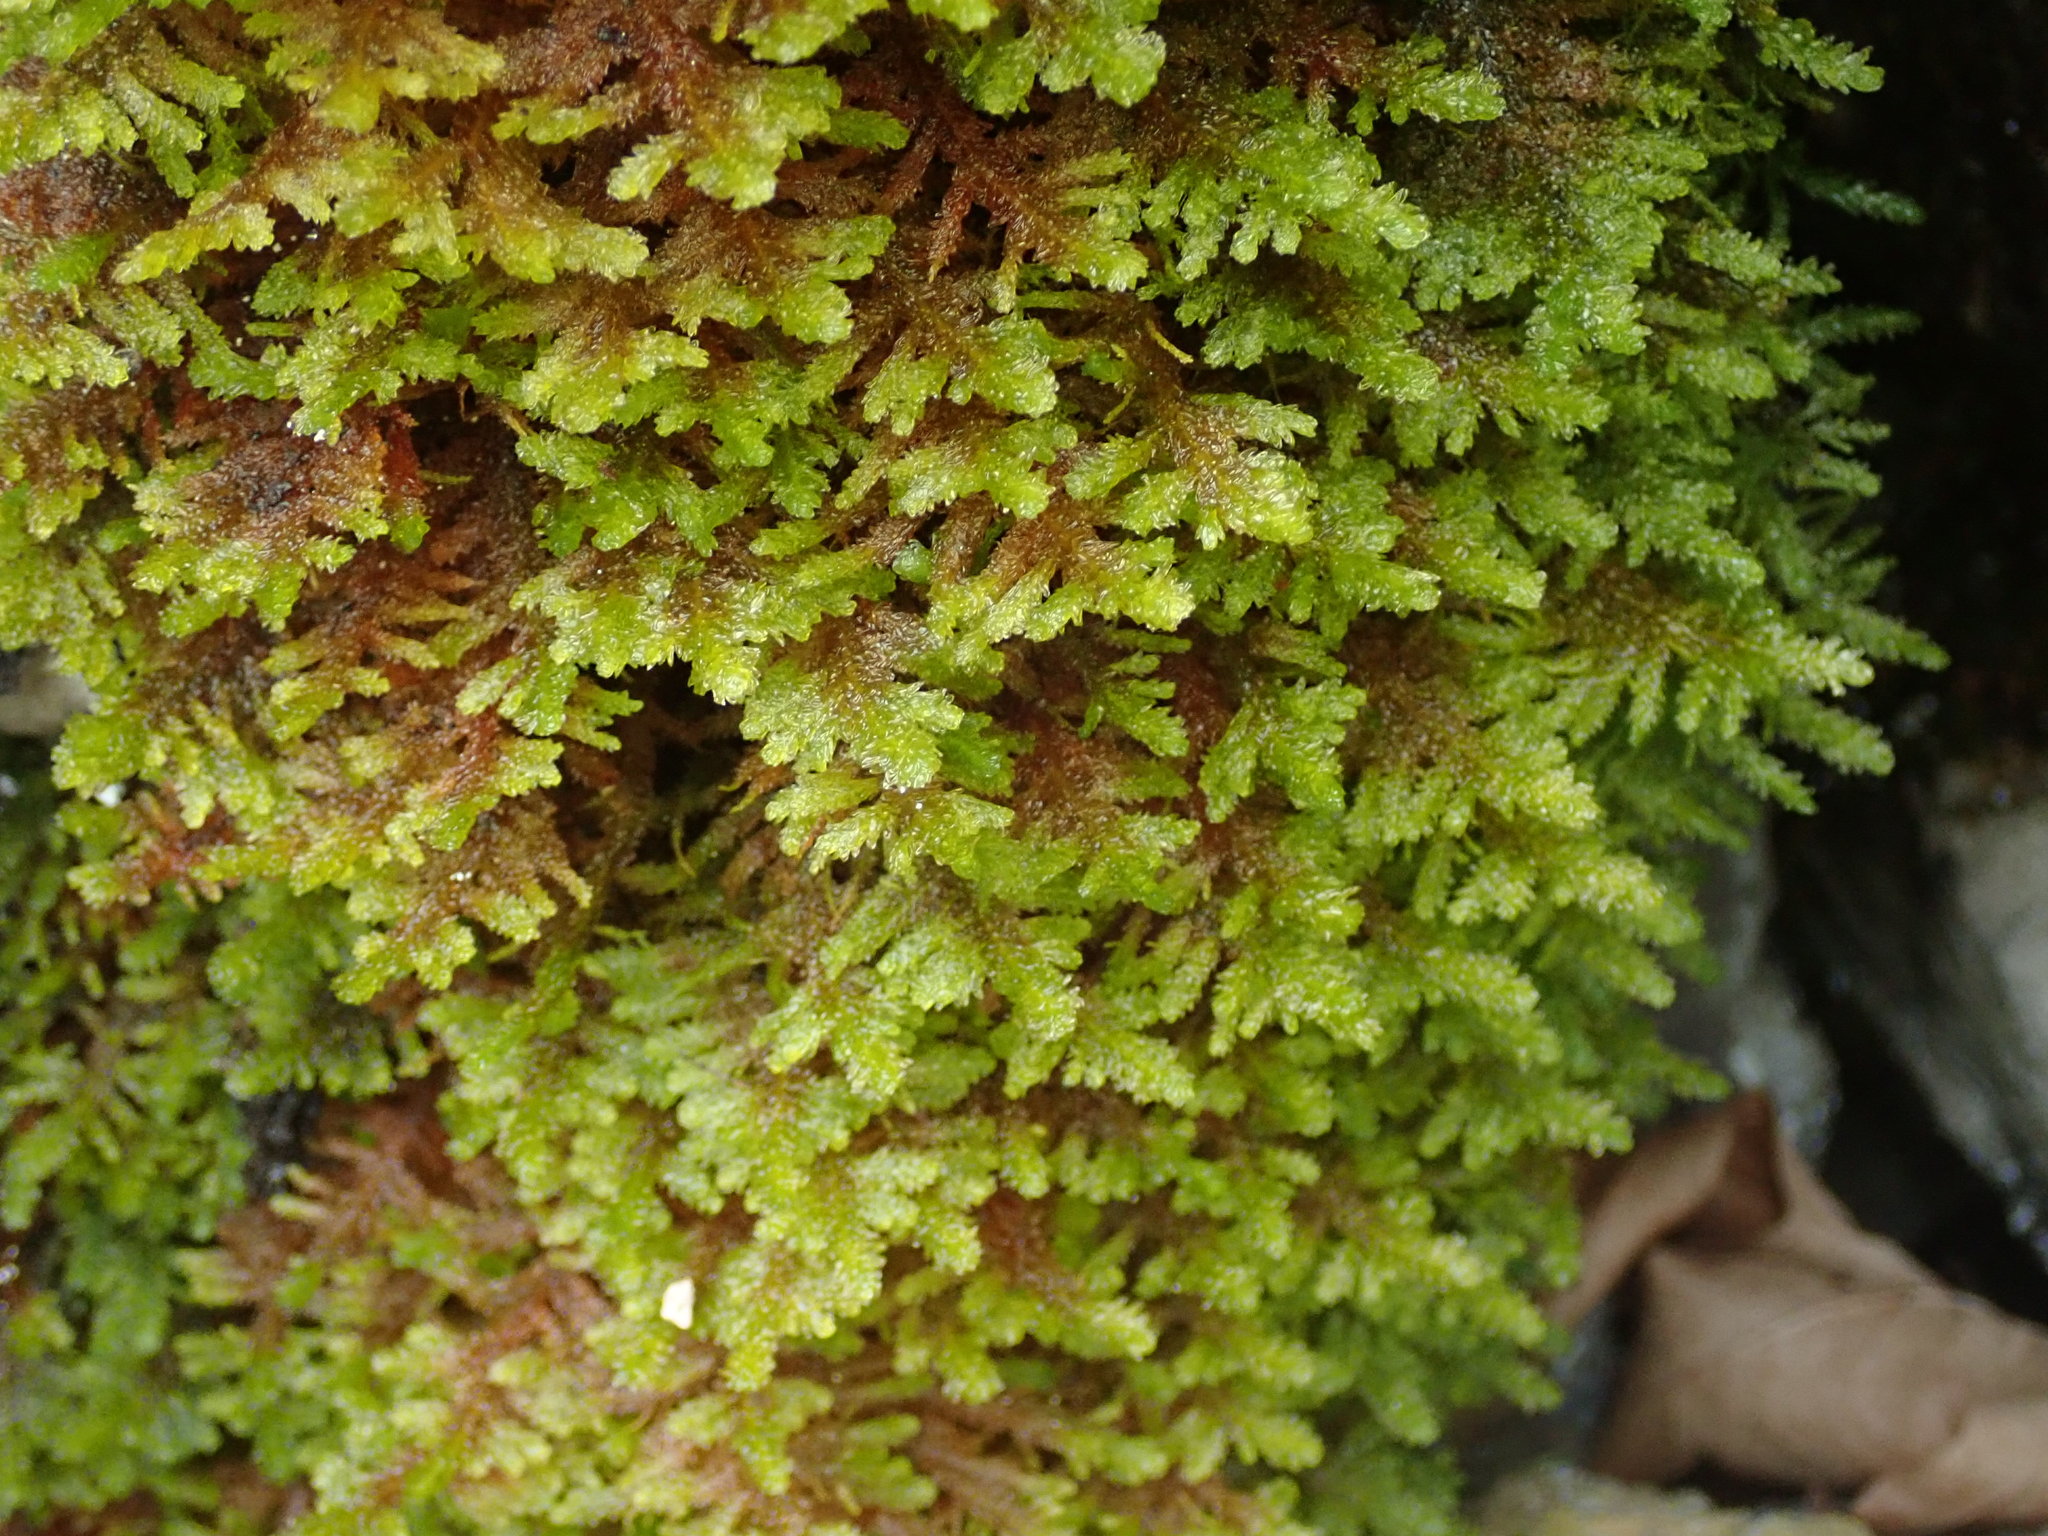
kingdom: Plantae
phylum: Bryophyta
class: Bryopsida
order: Hypnales
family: Neckeraceae
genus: Metaneckera
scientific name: Metaneckera menziesii
